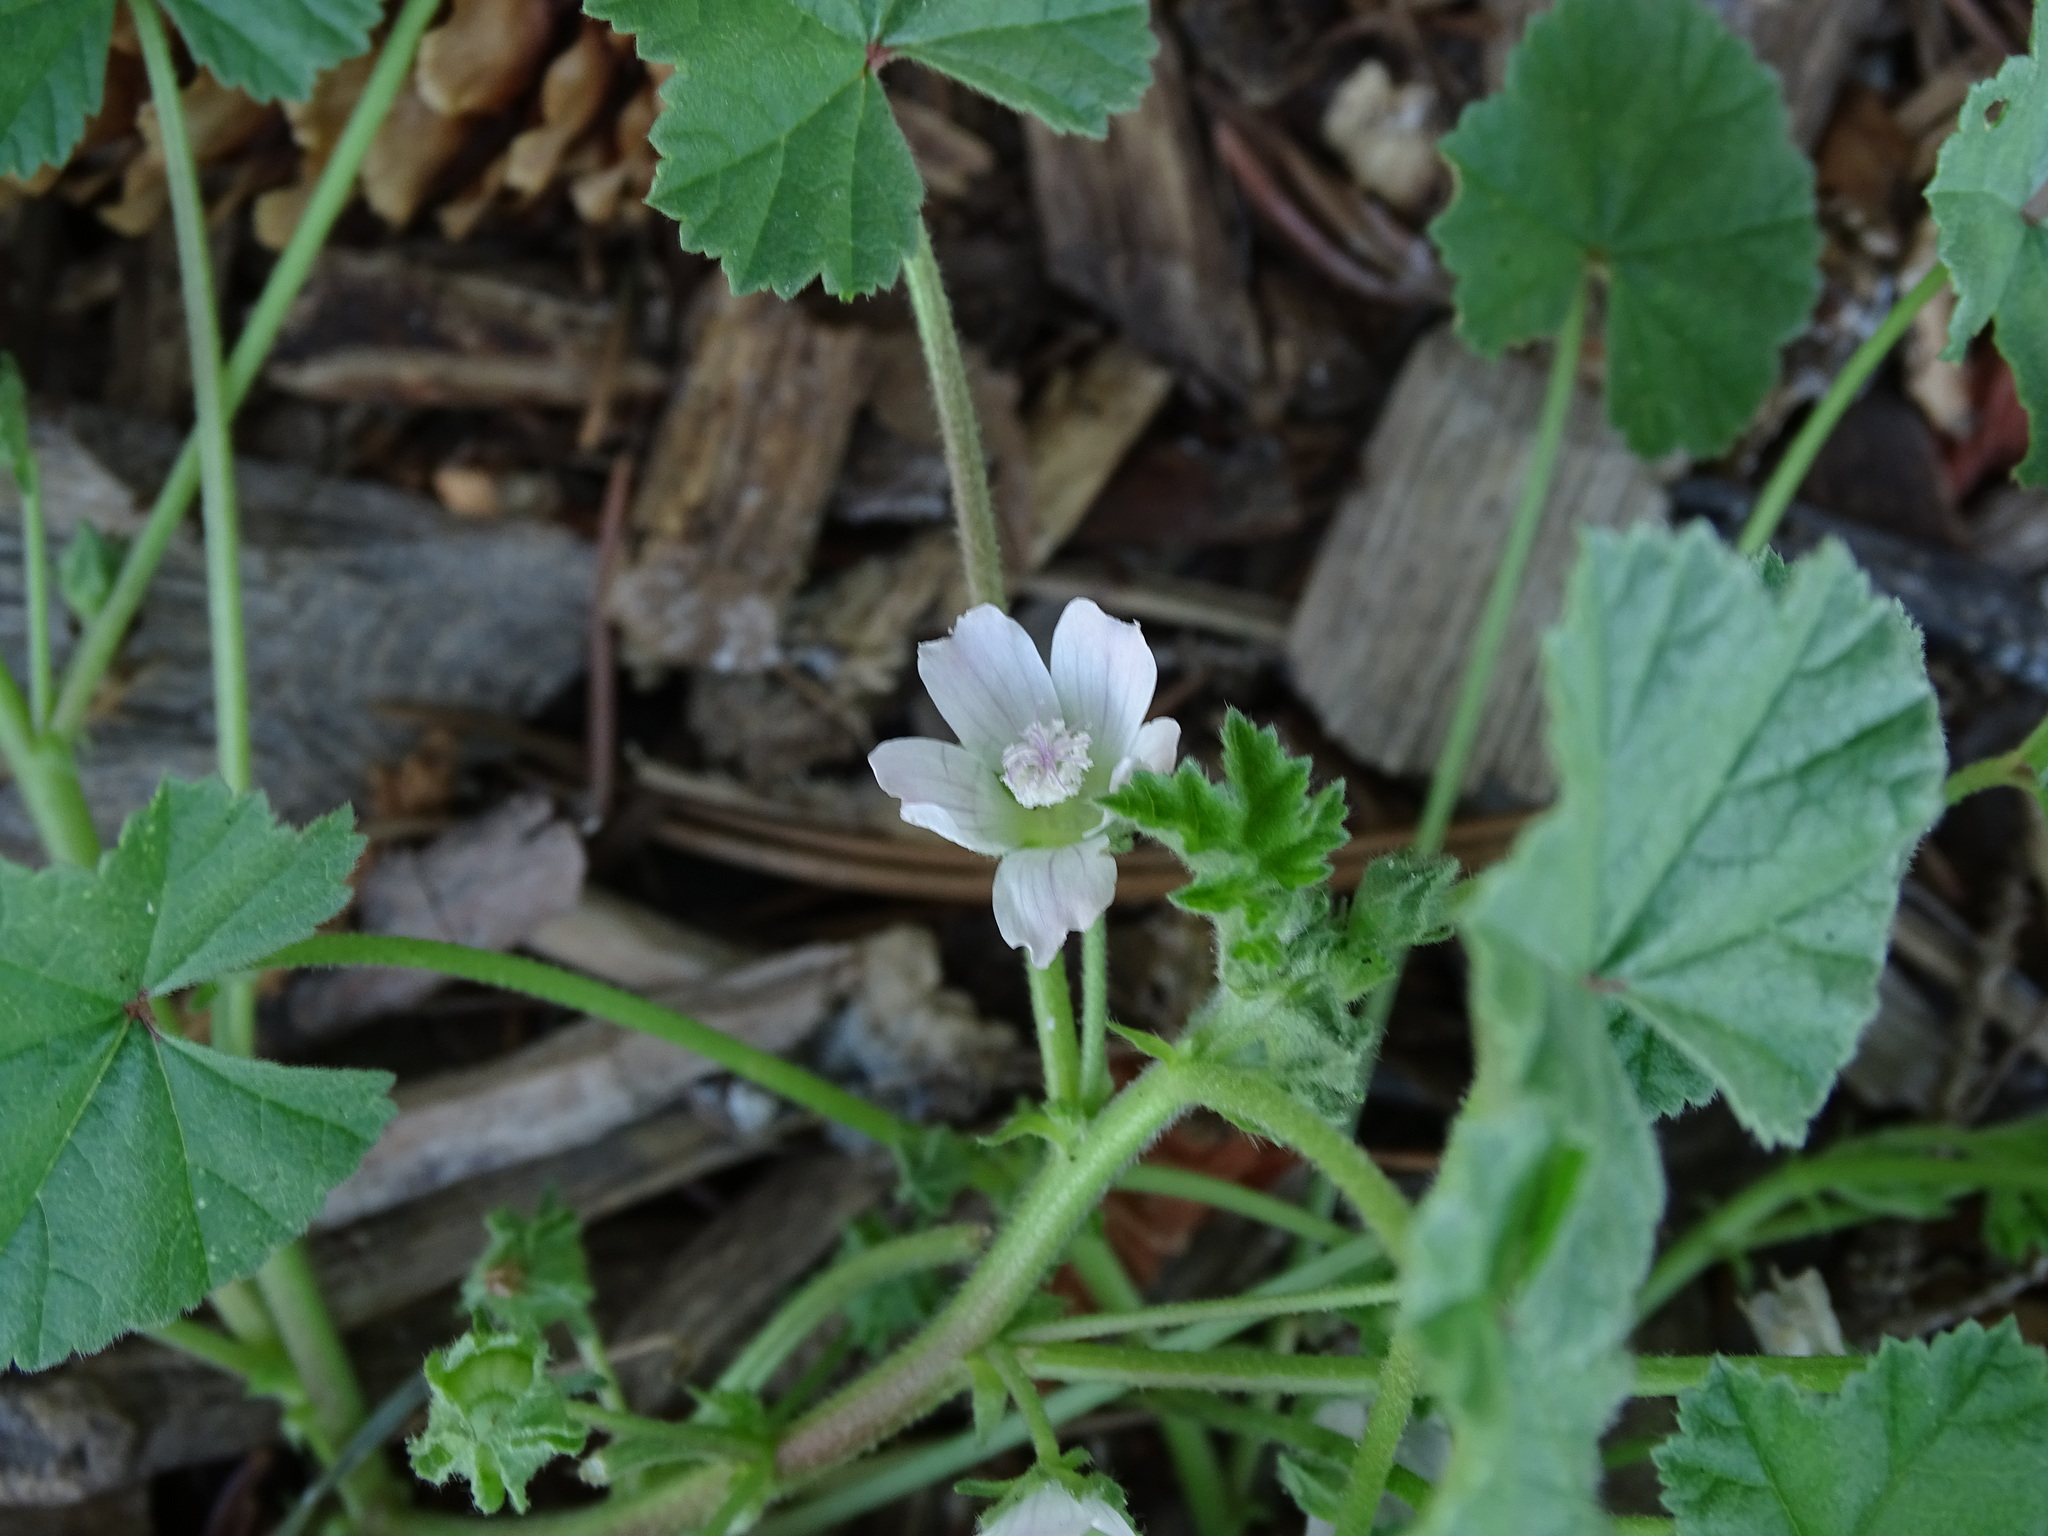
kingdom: Plantae
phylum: Tracheophyta
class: Magnoliopsida
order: Malvales
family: Malvaceae
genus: Malva
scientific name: Malva neglecta
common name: Common mallow
